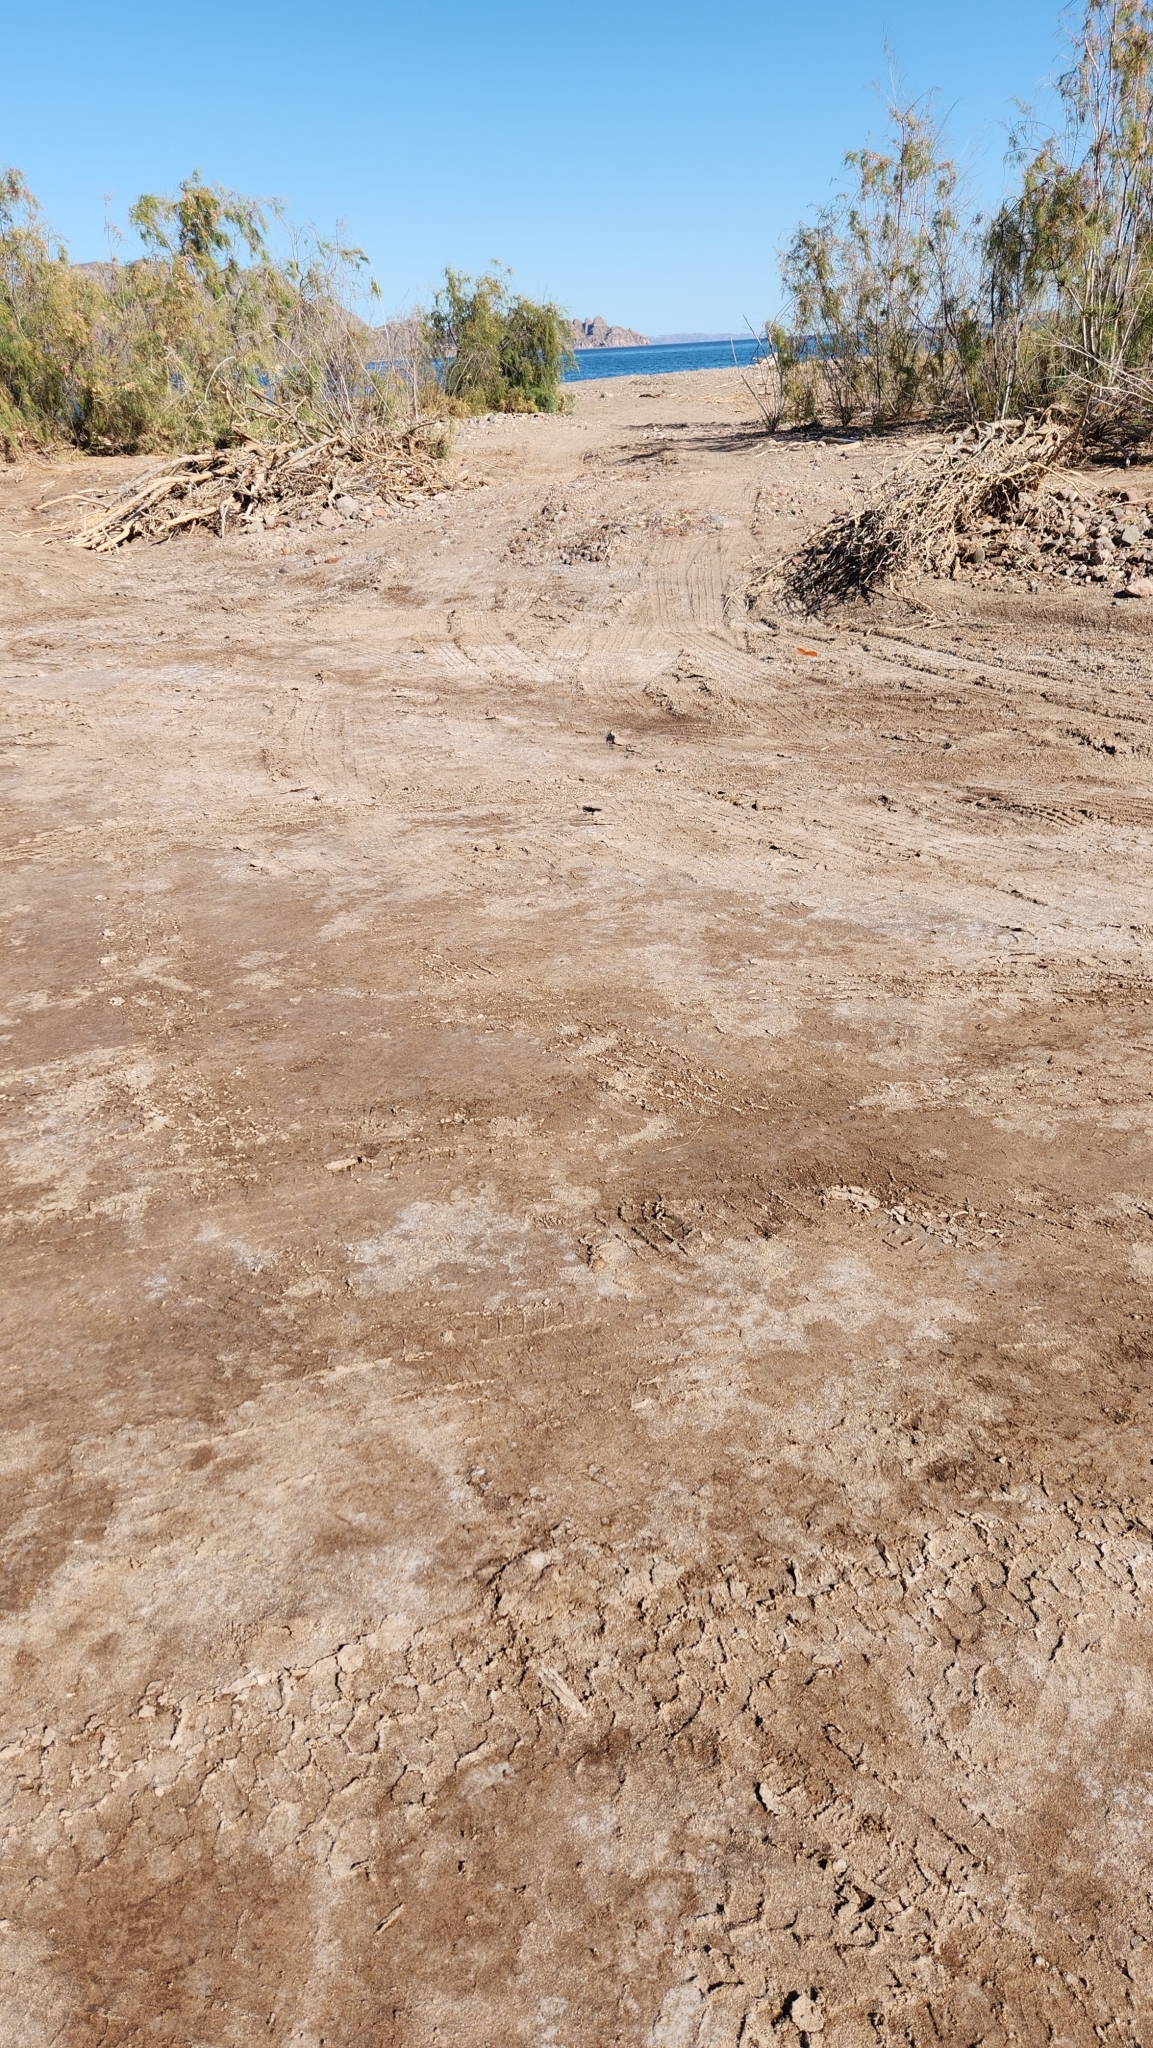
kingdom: Animalia
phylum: Arthropoda
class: Insecta
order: Lepidoptera
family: Nymphalidae
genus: Anaea
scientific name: Anaea aidea
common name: Tropical leafwing
